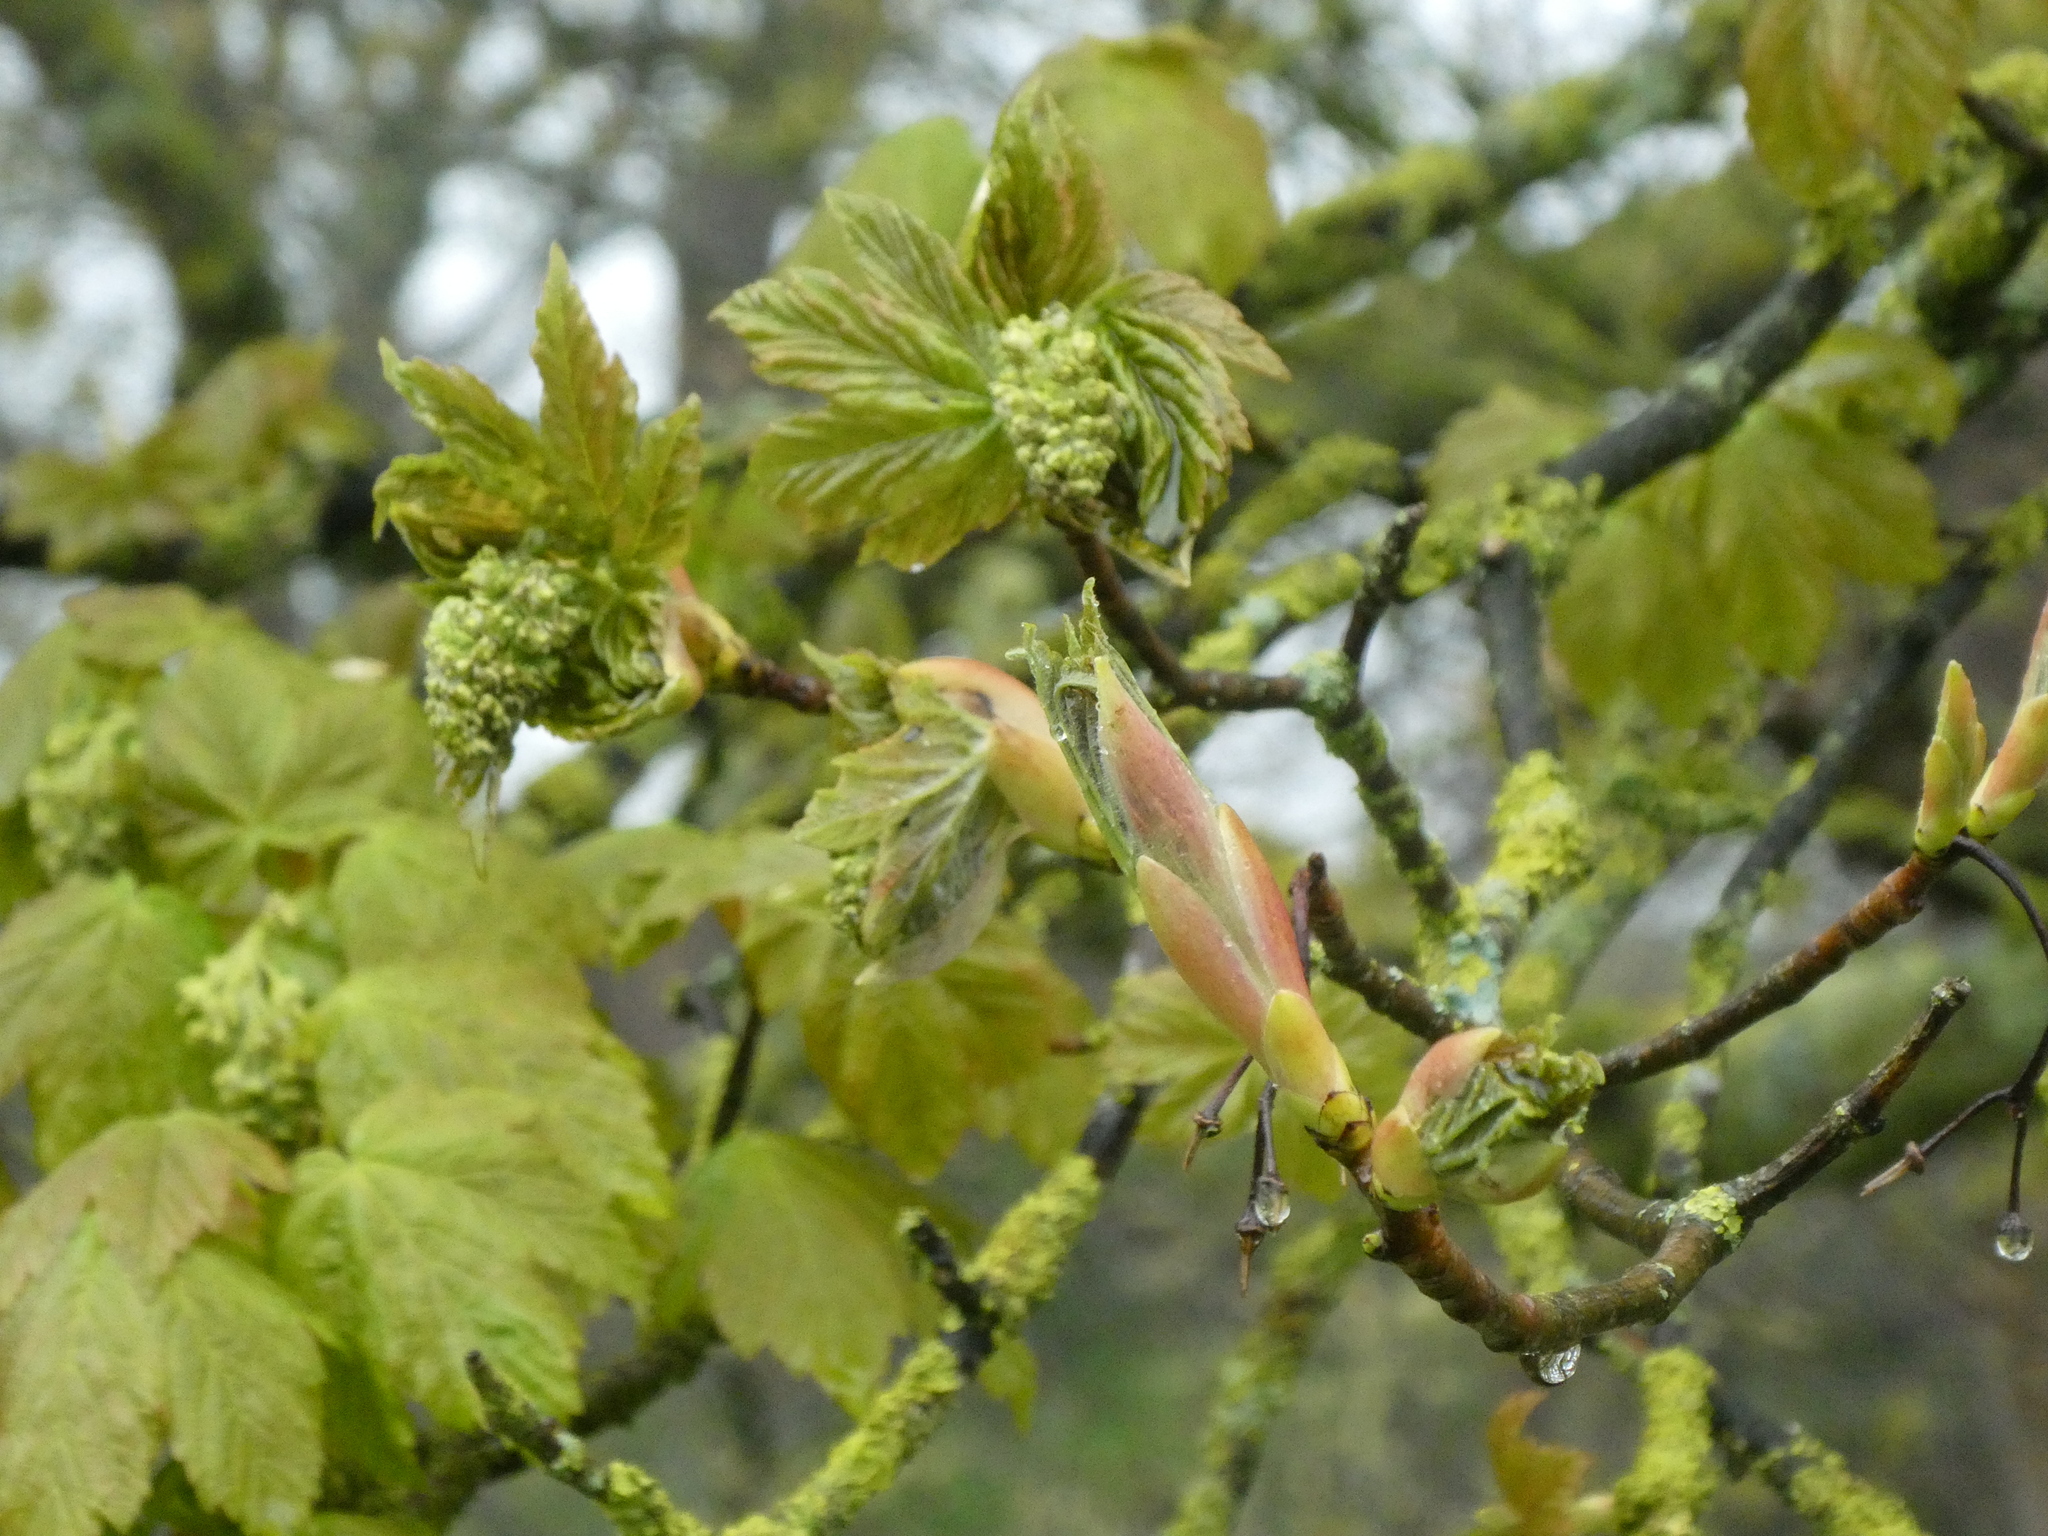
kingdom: Plantae
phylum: Tracheophyta
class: Magnoliopsida
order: Sapindales
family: Sapindaceae
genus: Acer
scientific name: Acer pseudoplatanus
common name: Sycamore
